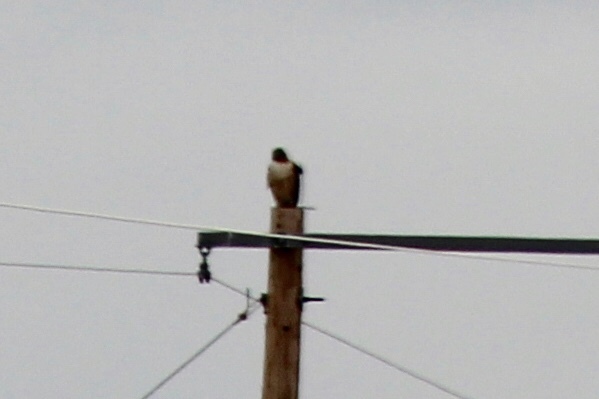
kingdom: Animalia
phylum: Chordata
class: Aves
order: Accipitriformes
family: Accipitridae
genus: Buteo
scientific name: Buteo jamaicensis
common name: Red-tailed hawk
